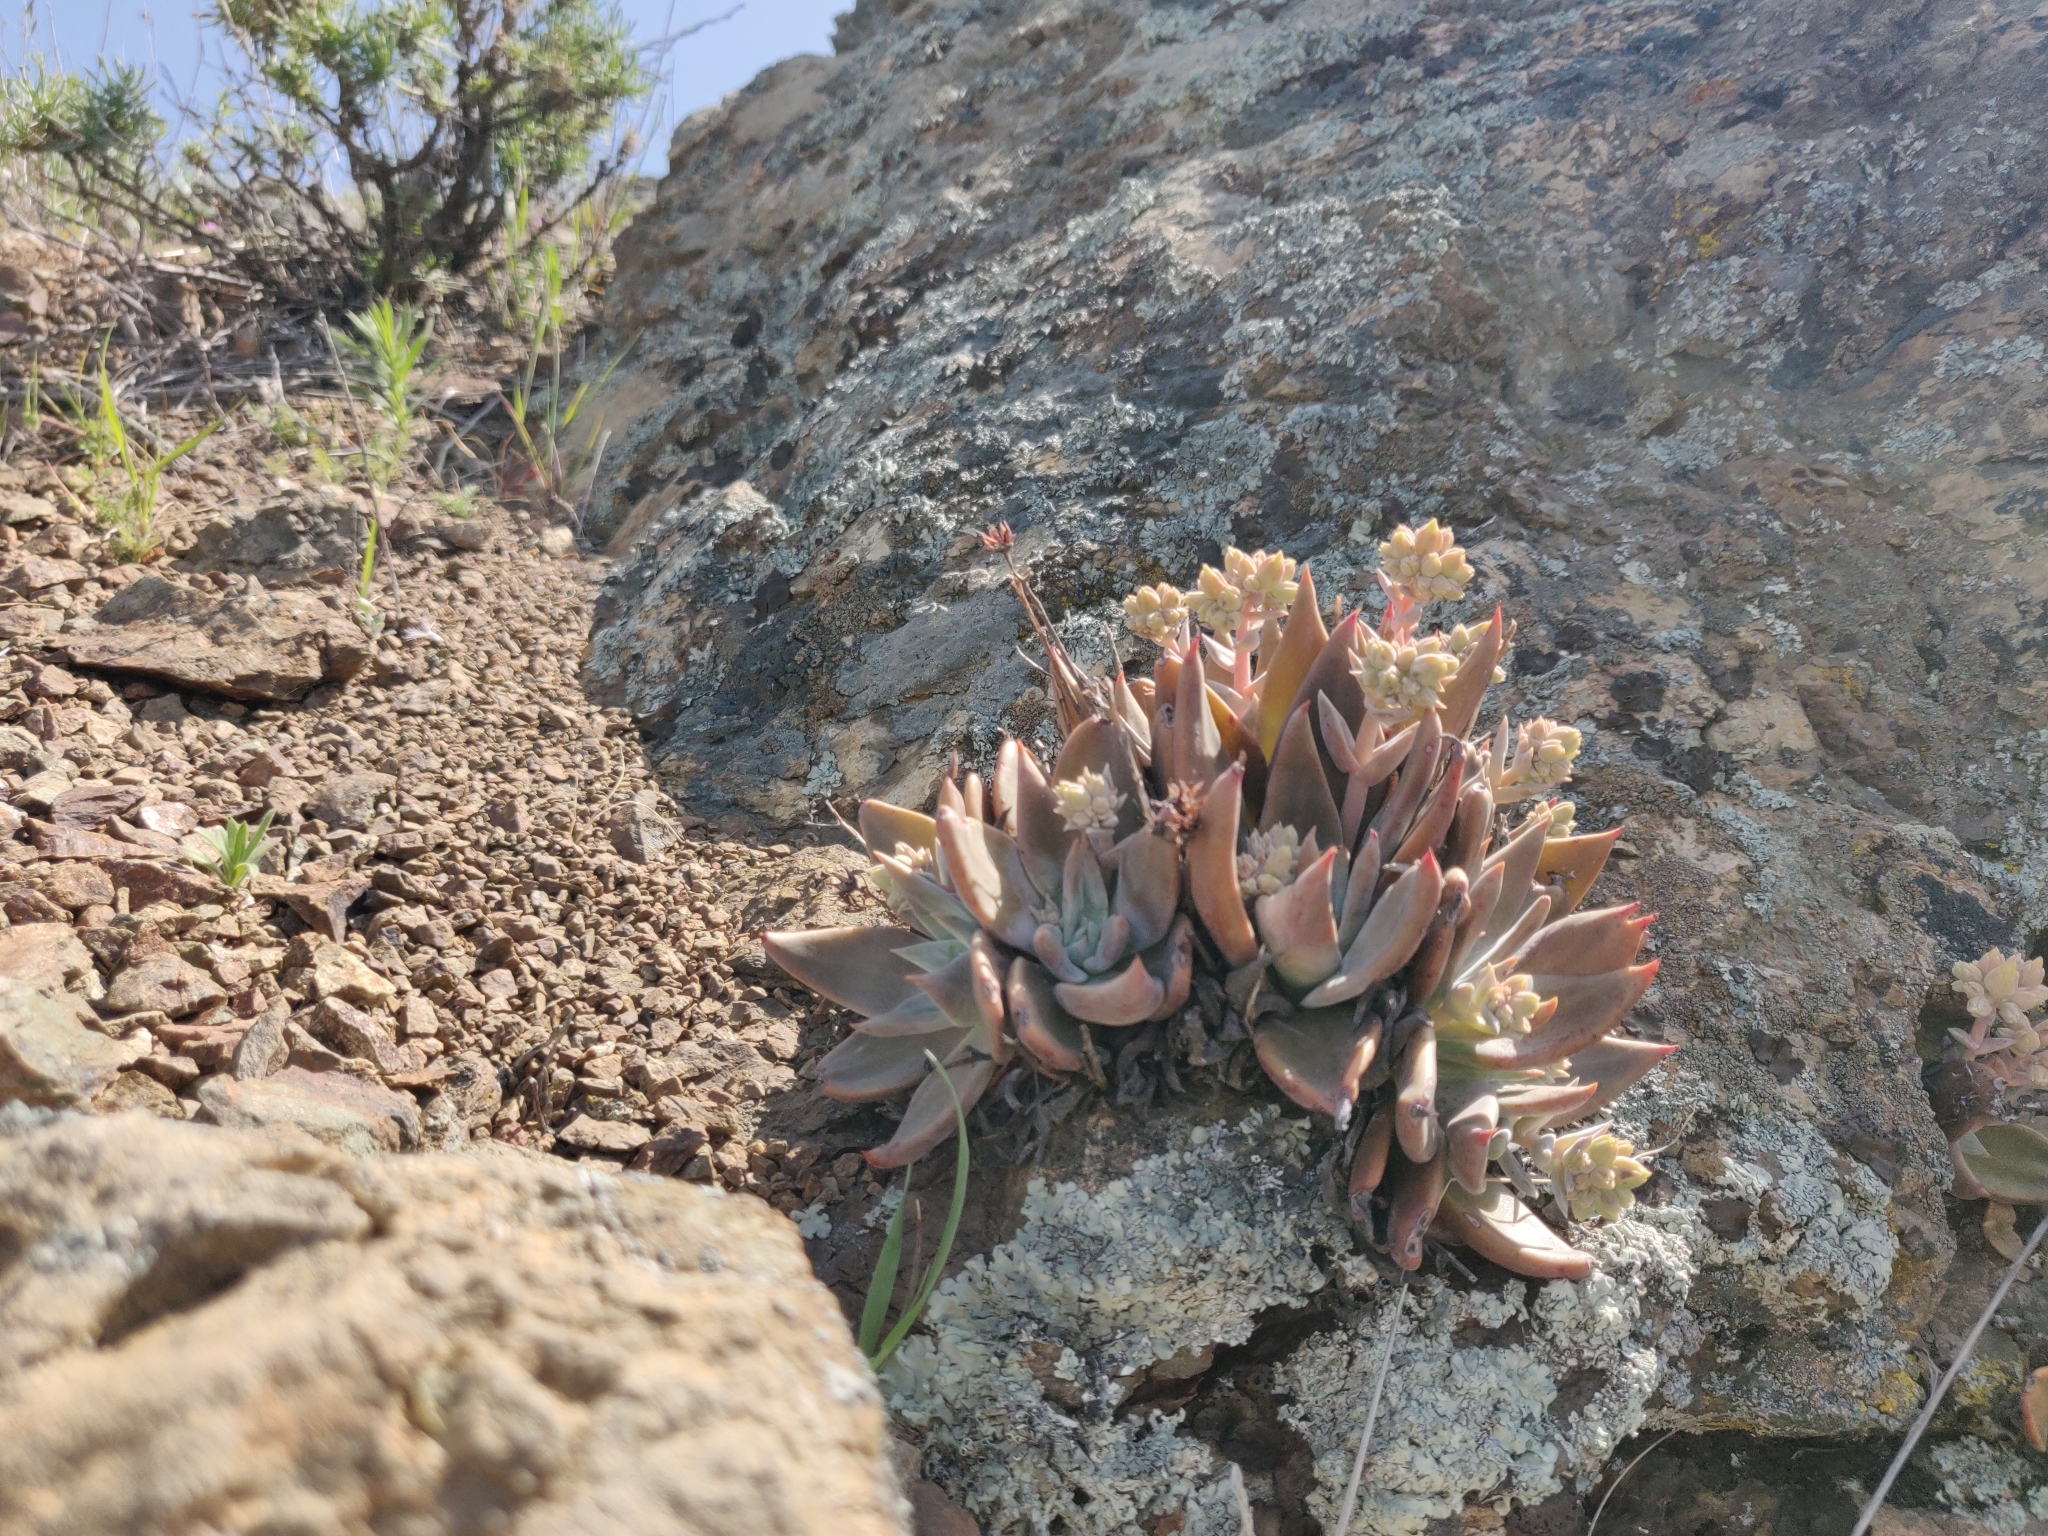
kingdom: Plantae
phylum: Tracheophyta
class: Magnoliopsida
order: Saxifragales
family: Crassulaceae
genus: Dudleya
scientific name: Dudleya cymosa
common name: Canyon dudleya
